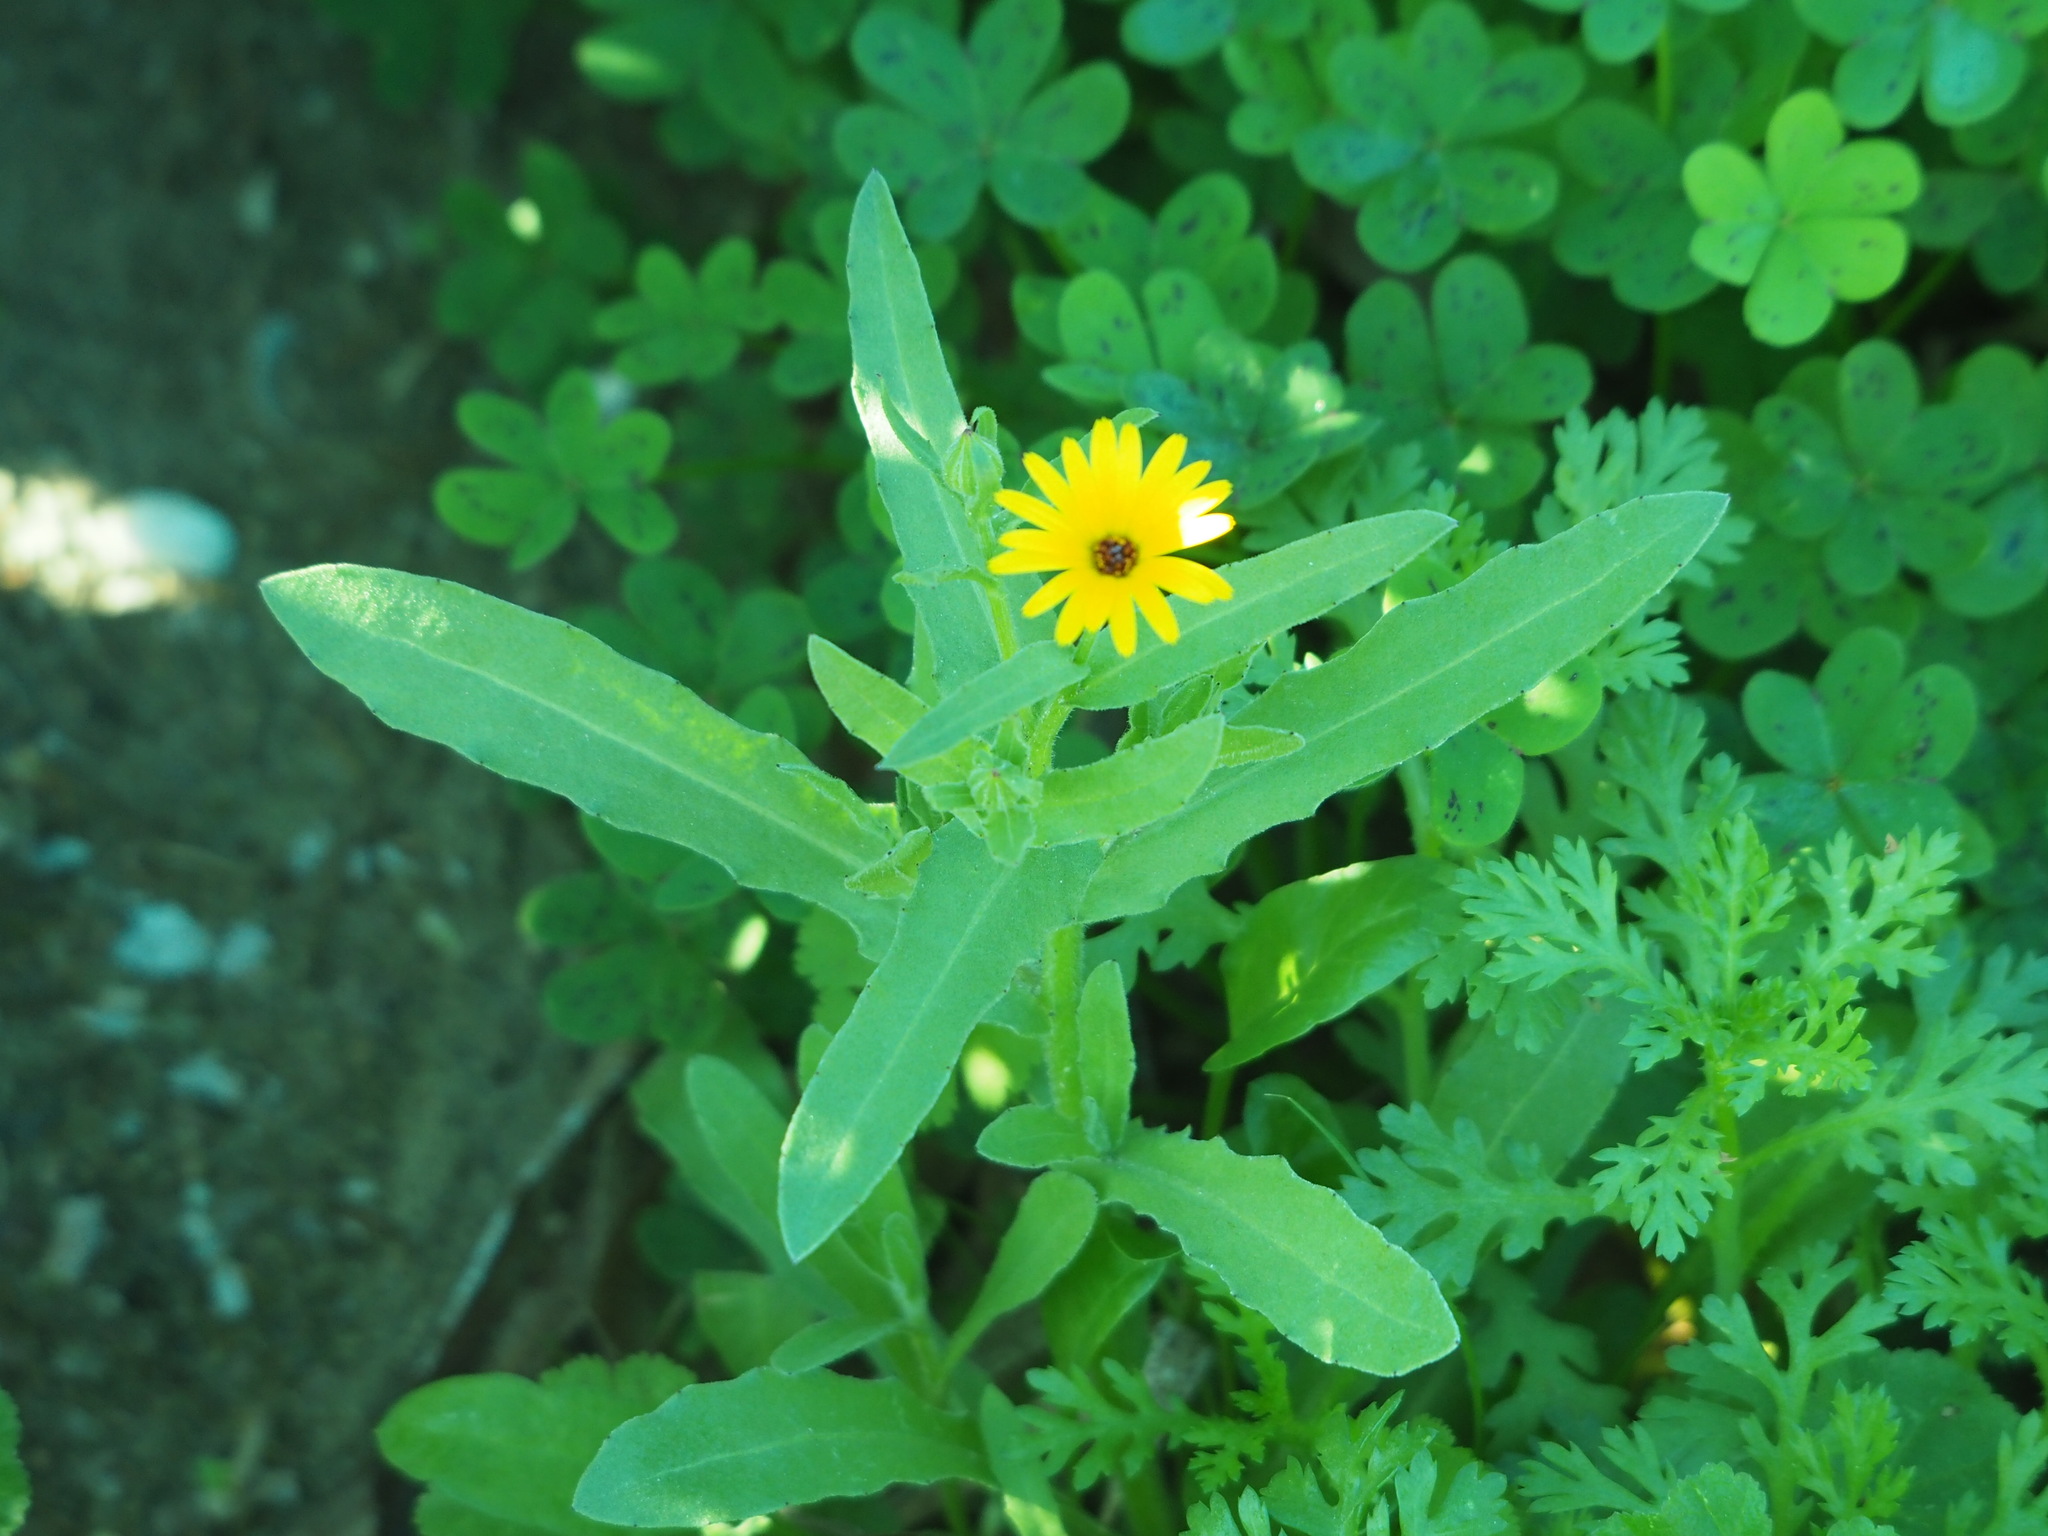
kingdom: Plantae
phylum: Tracheophyta
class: Magnoliopsida
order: Asterales
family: Asteraceae
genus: Calendula
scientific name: Calendula arvensis
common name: Field marigold
